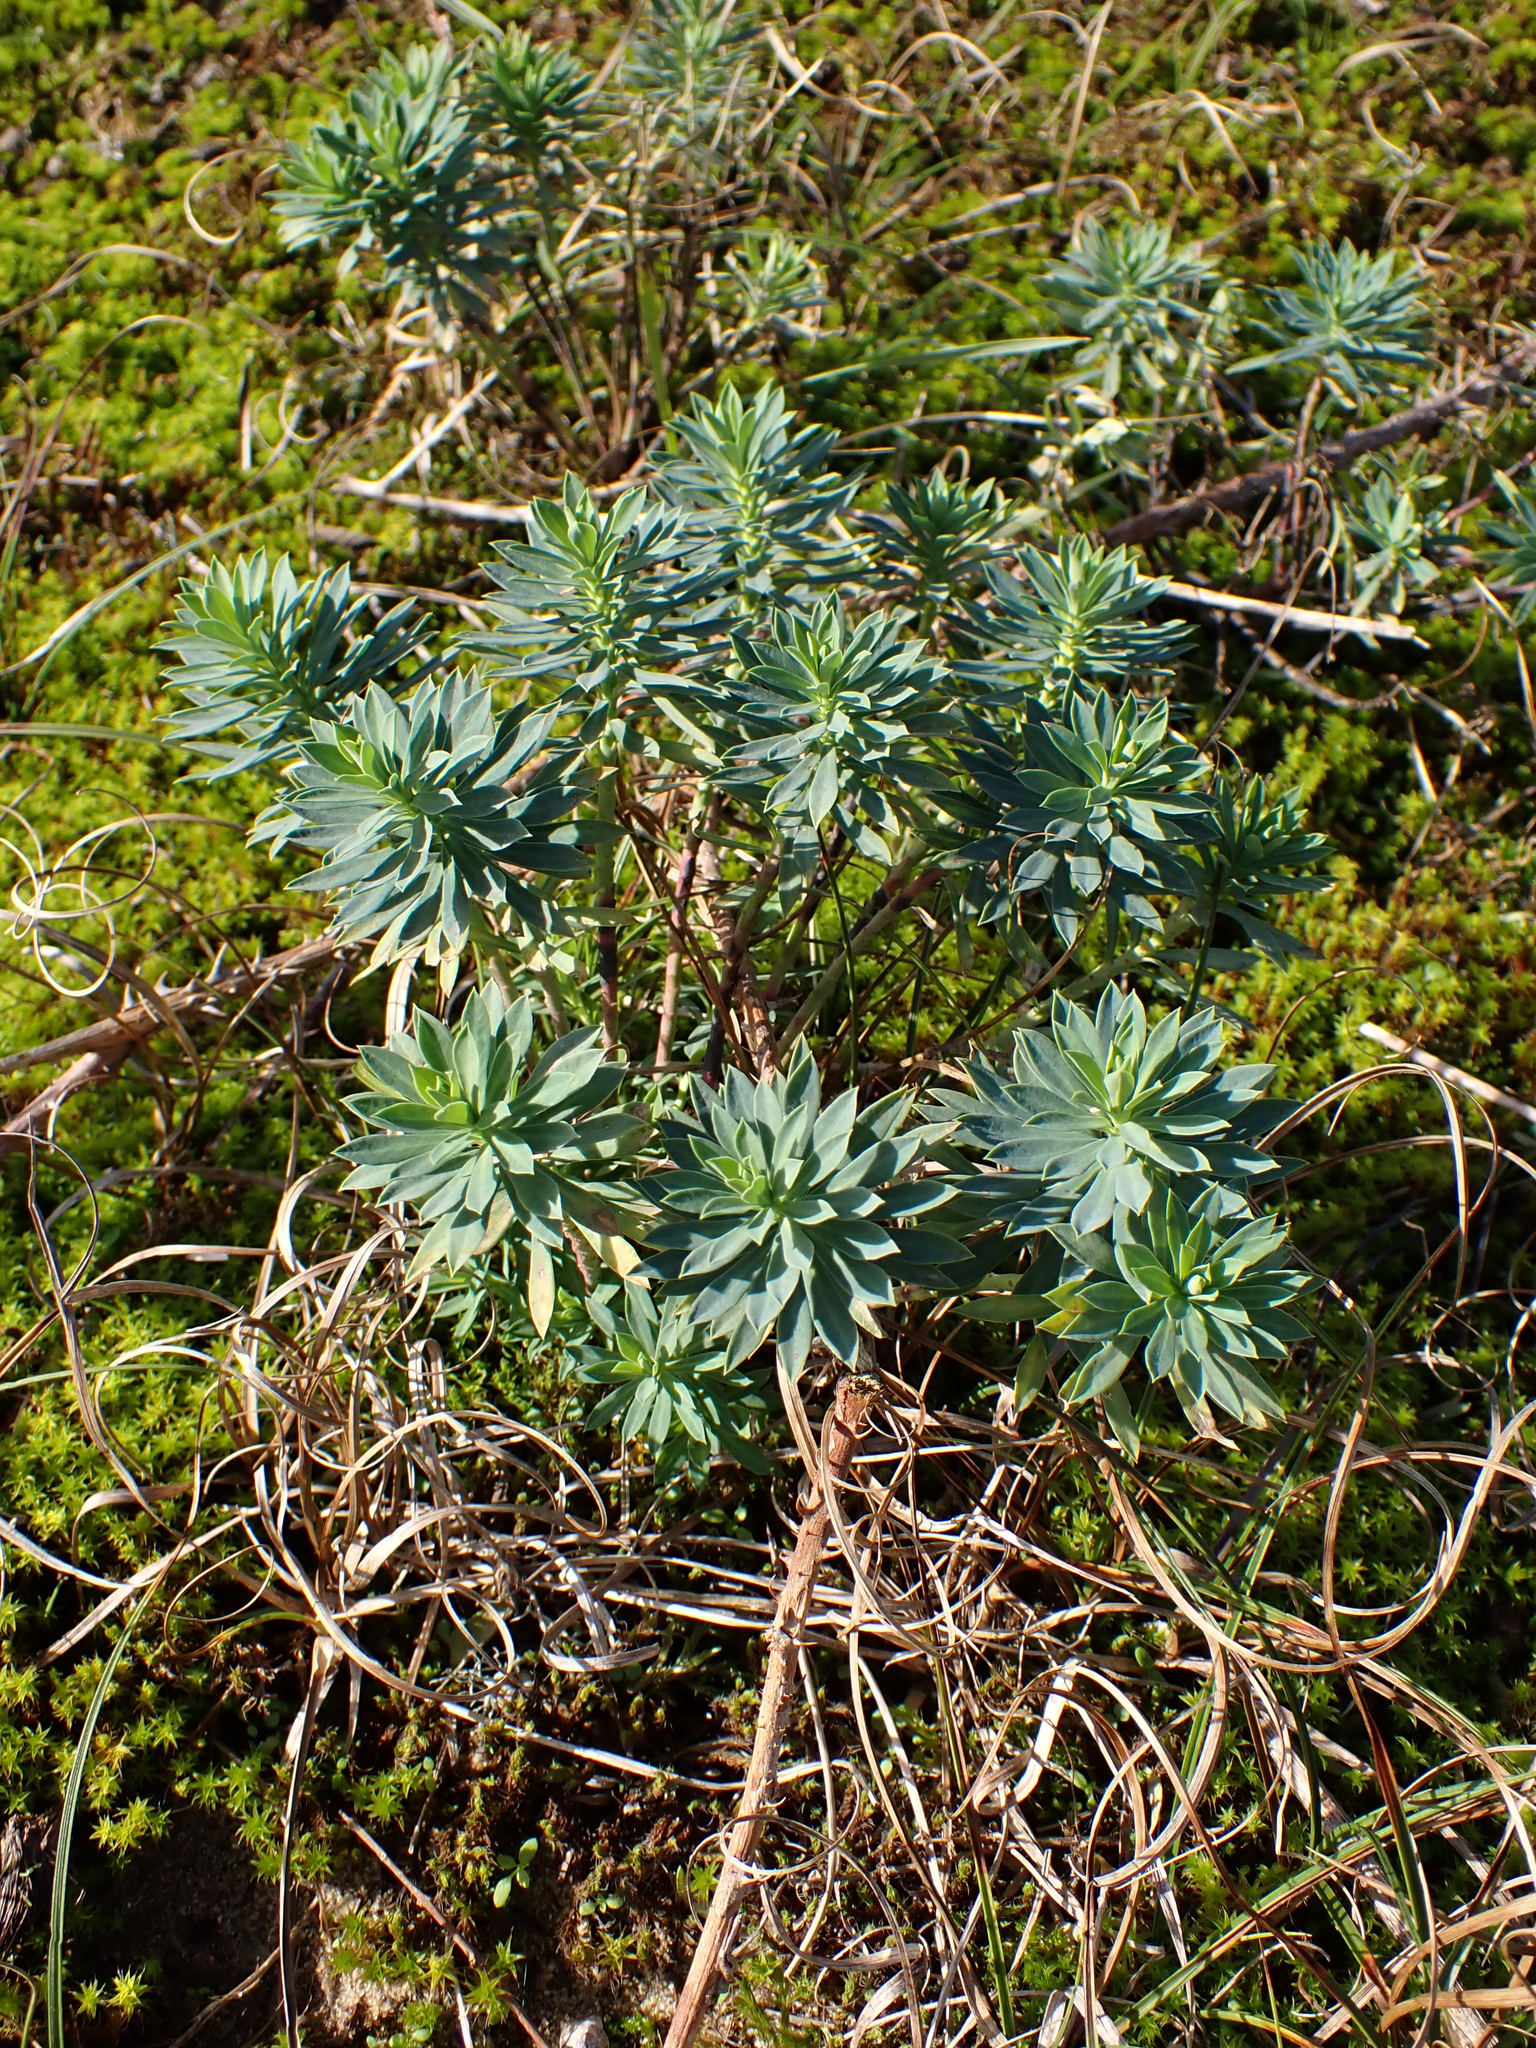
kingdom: Plantae
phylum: Tracheophyta
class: Magnoliopsida
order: Malpighiales
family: Euphorbiaceae
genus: Euphorbia
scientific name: Euphorbia portlandica
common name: Portland spurge
